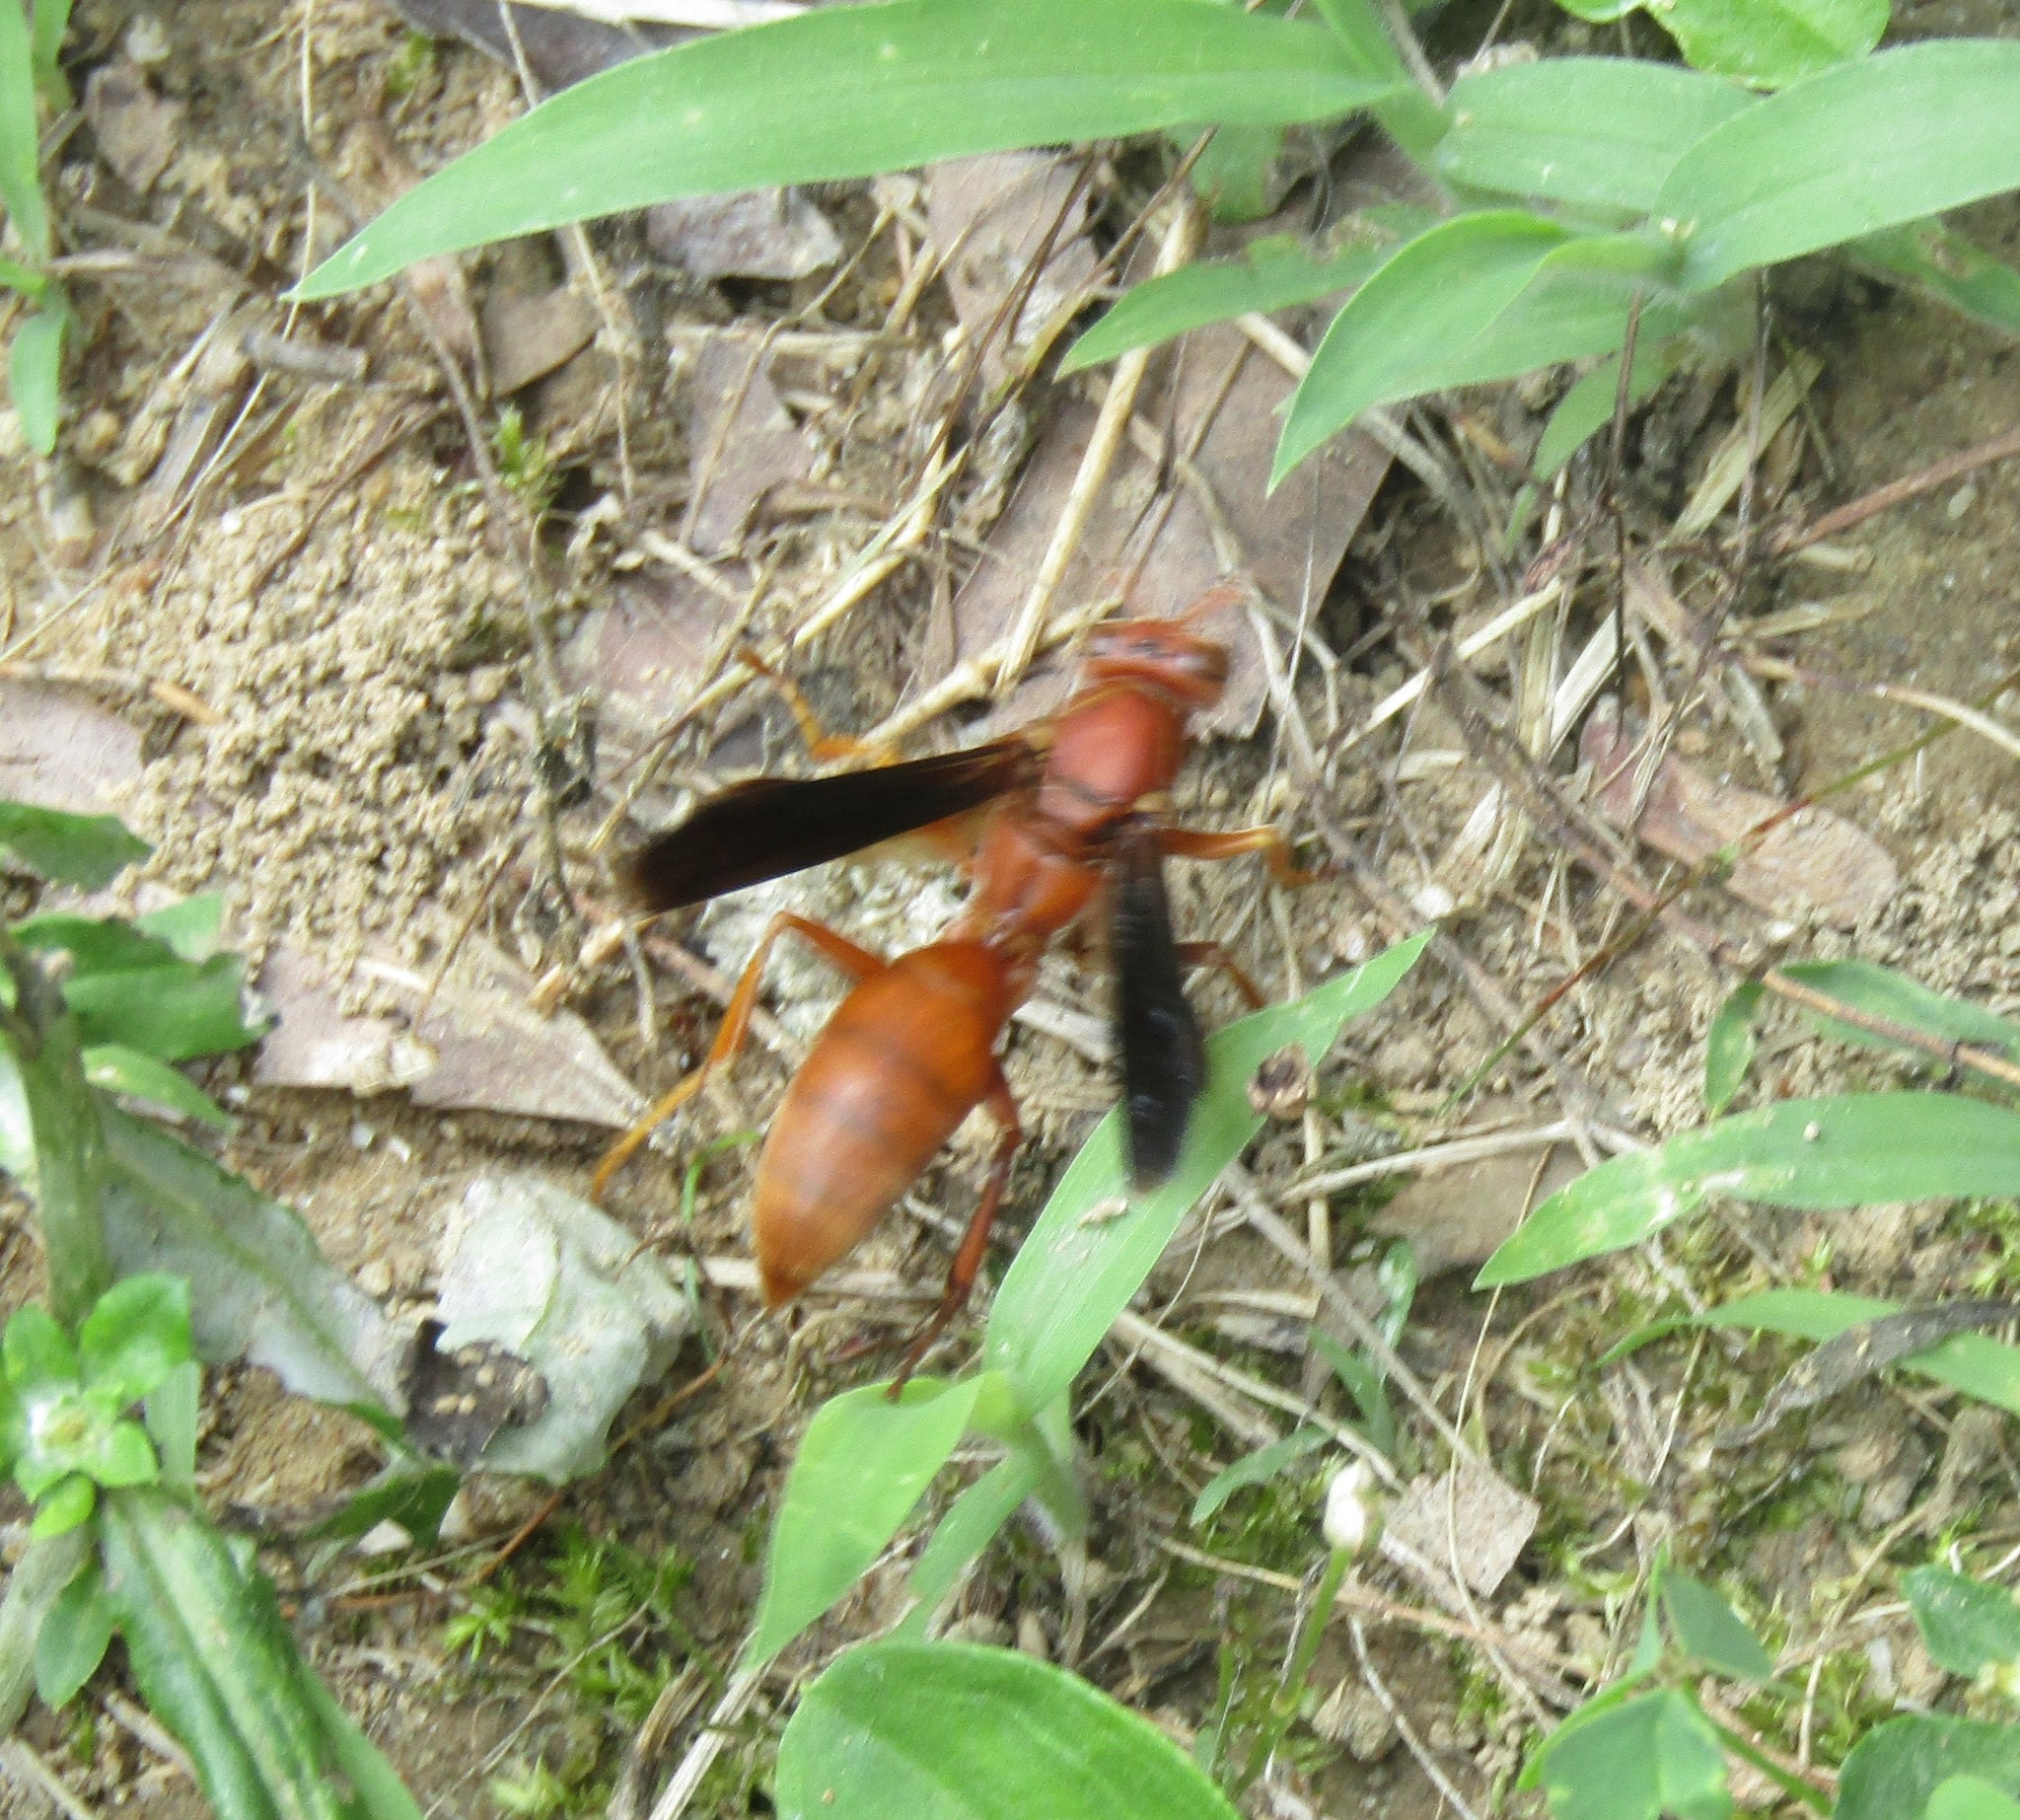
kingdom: Animalia
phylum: Arthropoda
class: Insecta
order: Hymenoptera
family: Vespidae
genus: Fuscopolistes
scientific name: Fuscopolistes
